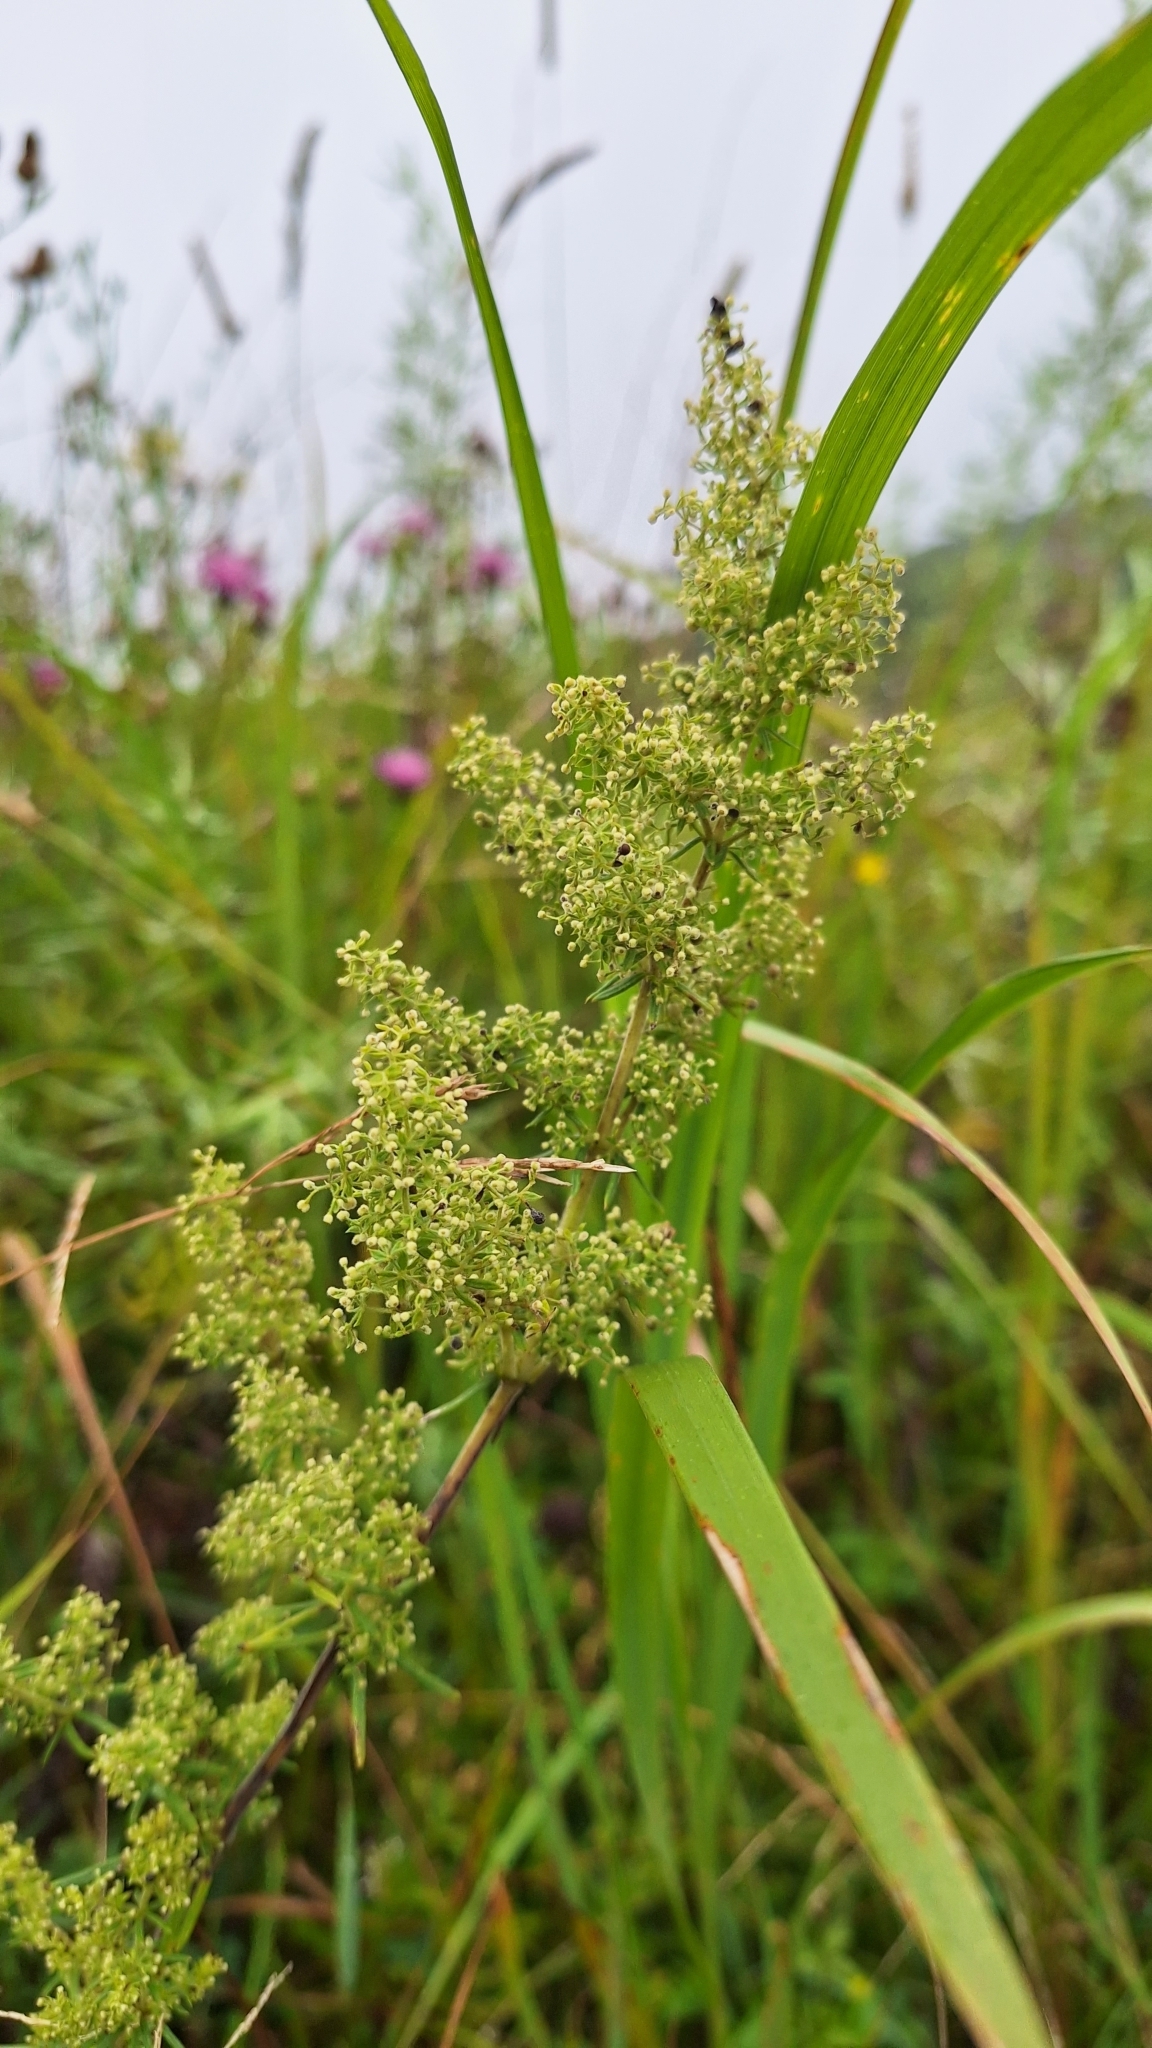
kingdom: Plantae
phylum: Tracheophyta
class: Magnoliopsida
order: Gentianales
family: Rubiaceae
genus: Galium
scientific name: Galium verum
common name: Lady's bedstraw
